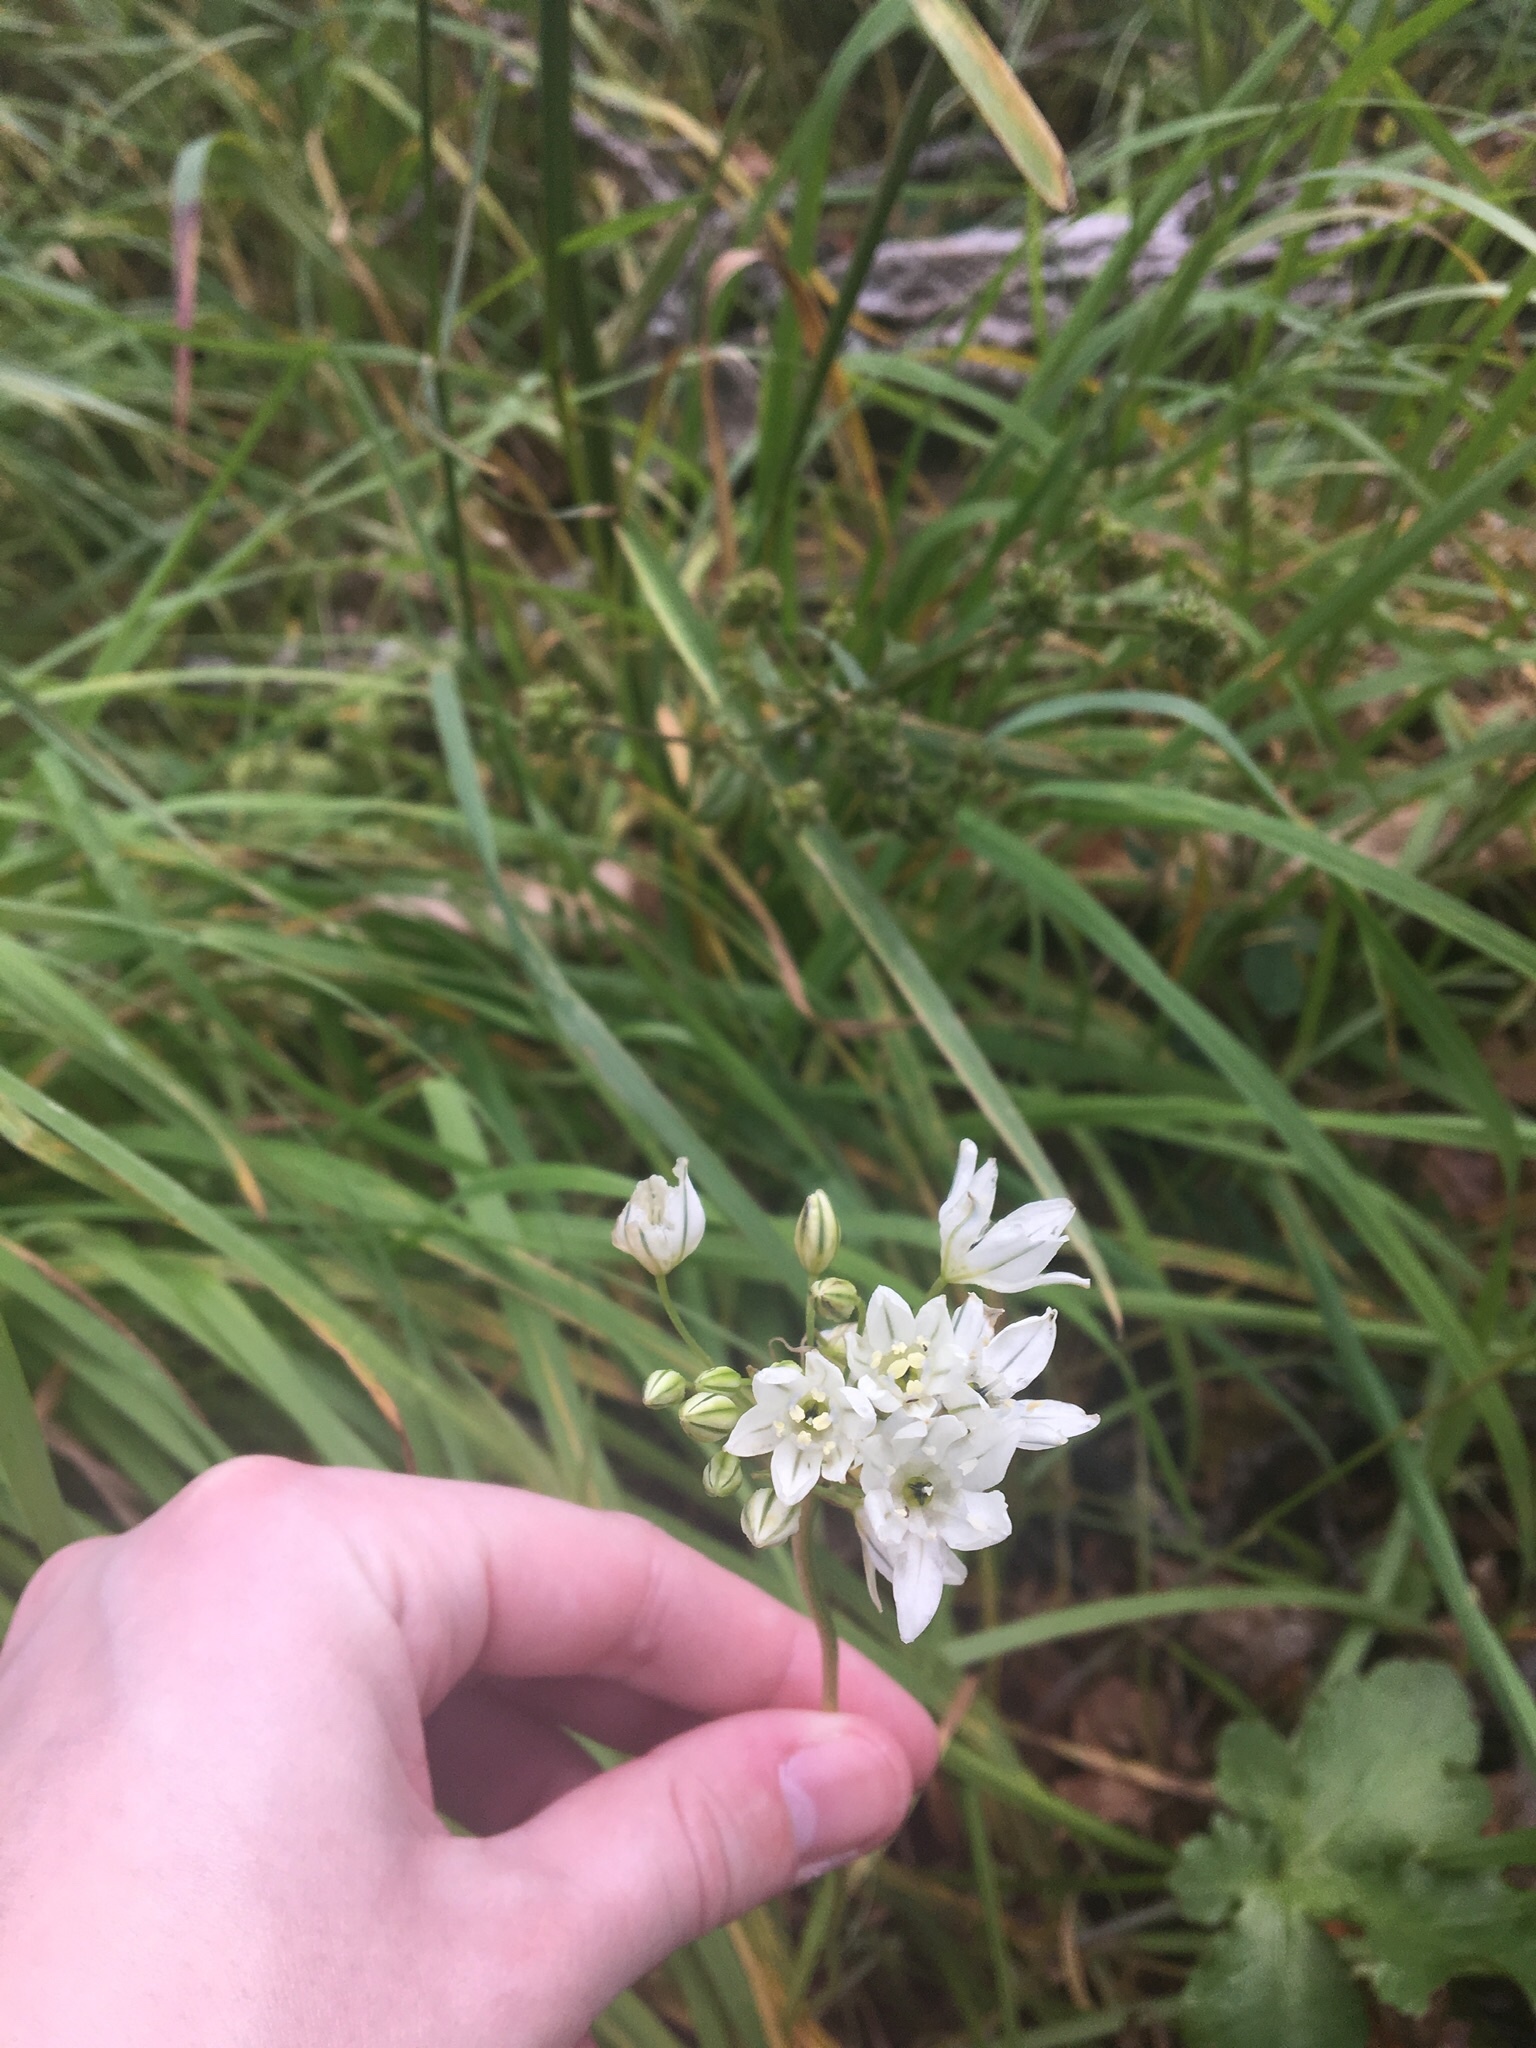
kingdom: Plantae
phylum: Tracheophyta
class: Liliopsida
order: Asparagales
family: Asparagaceae
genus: Triteleia
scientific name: Triteleia hyacinthina
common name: White brodiaea
